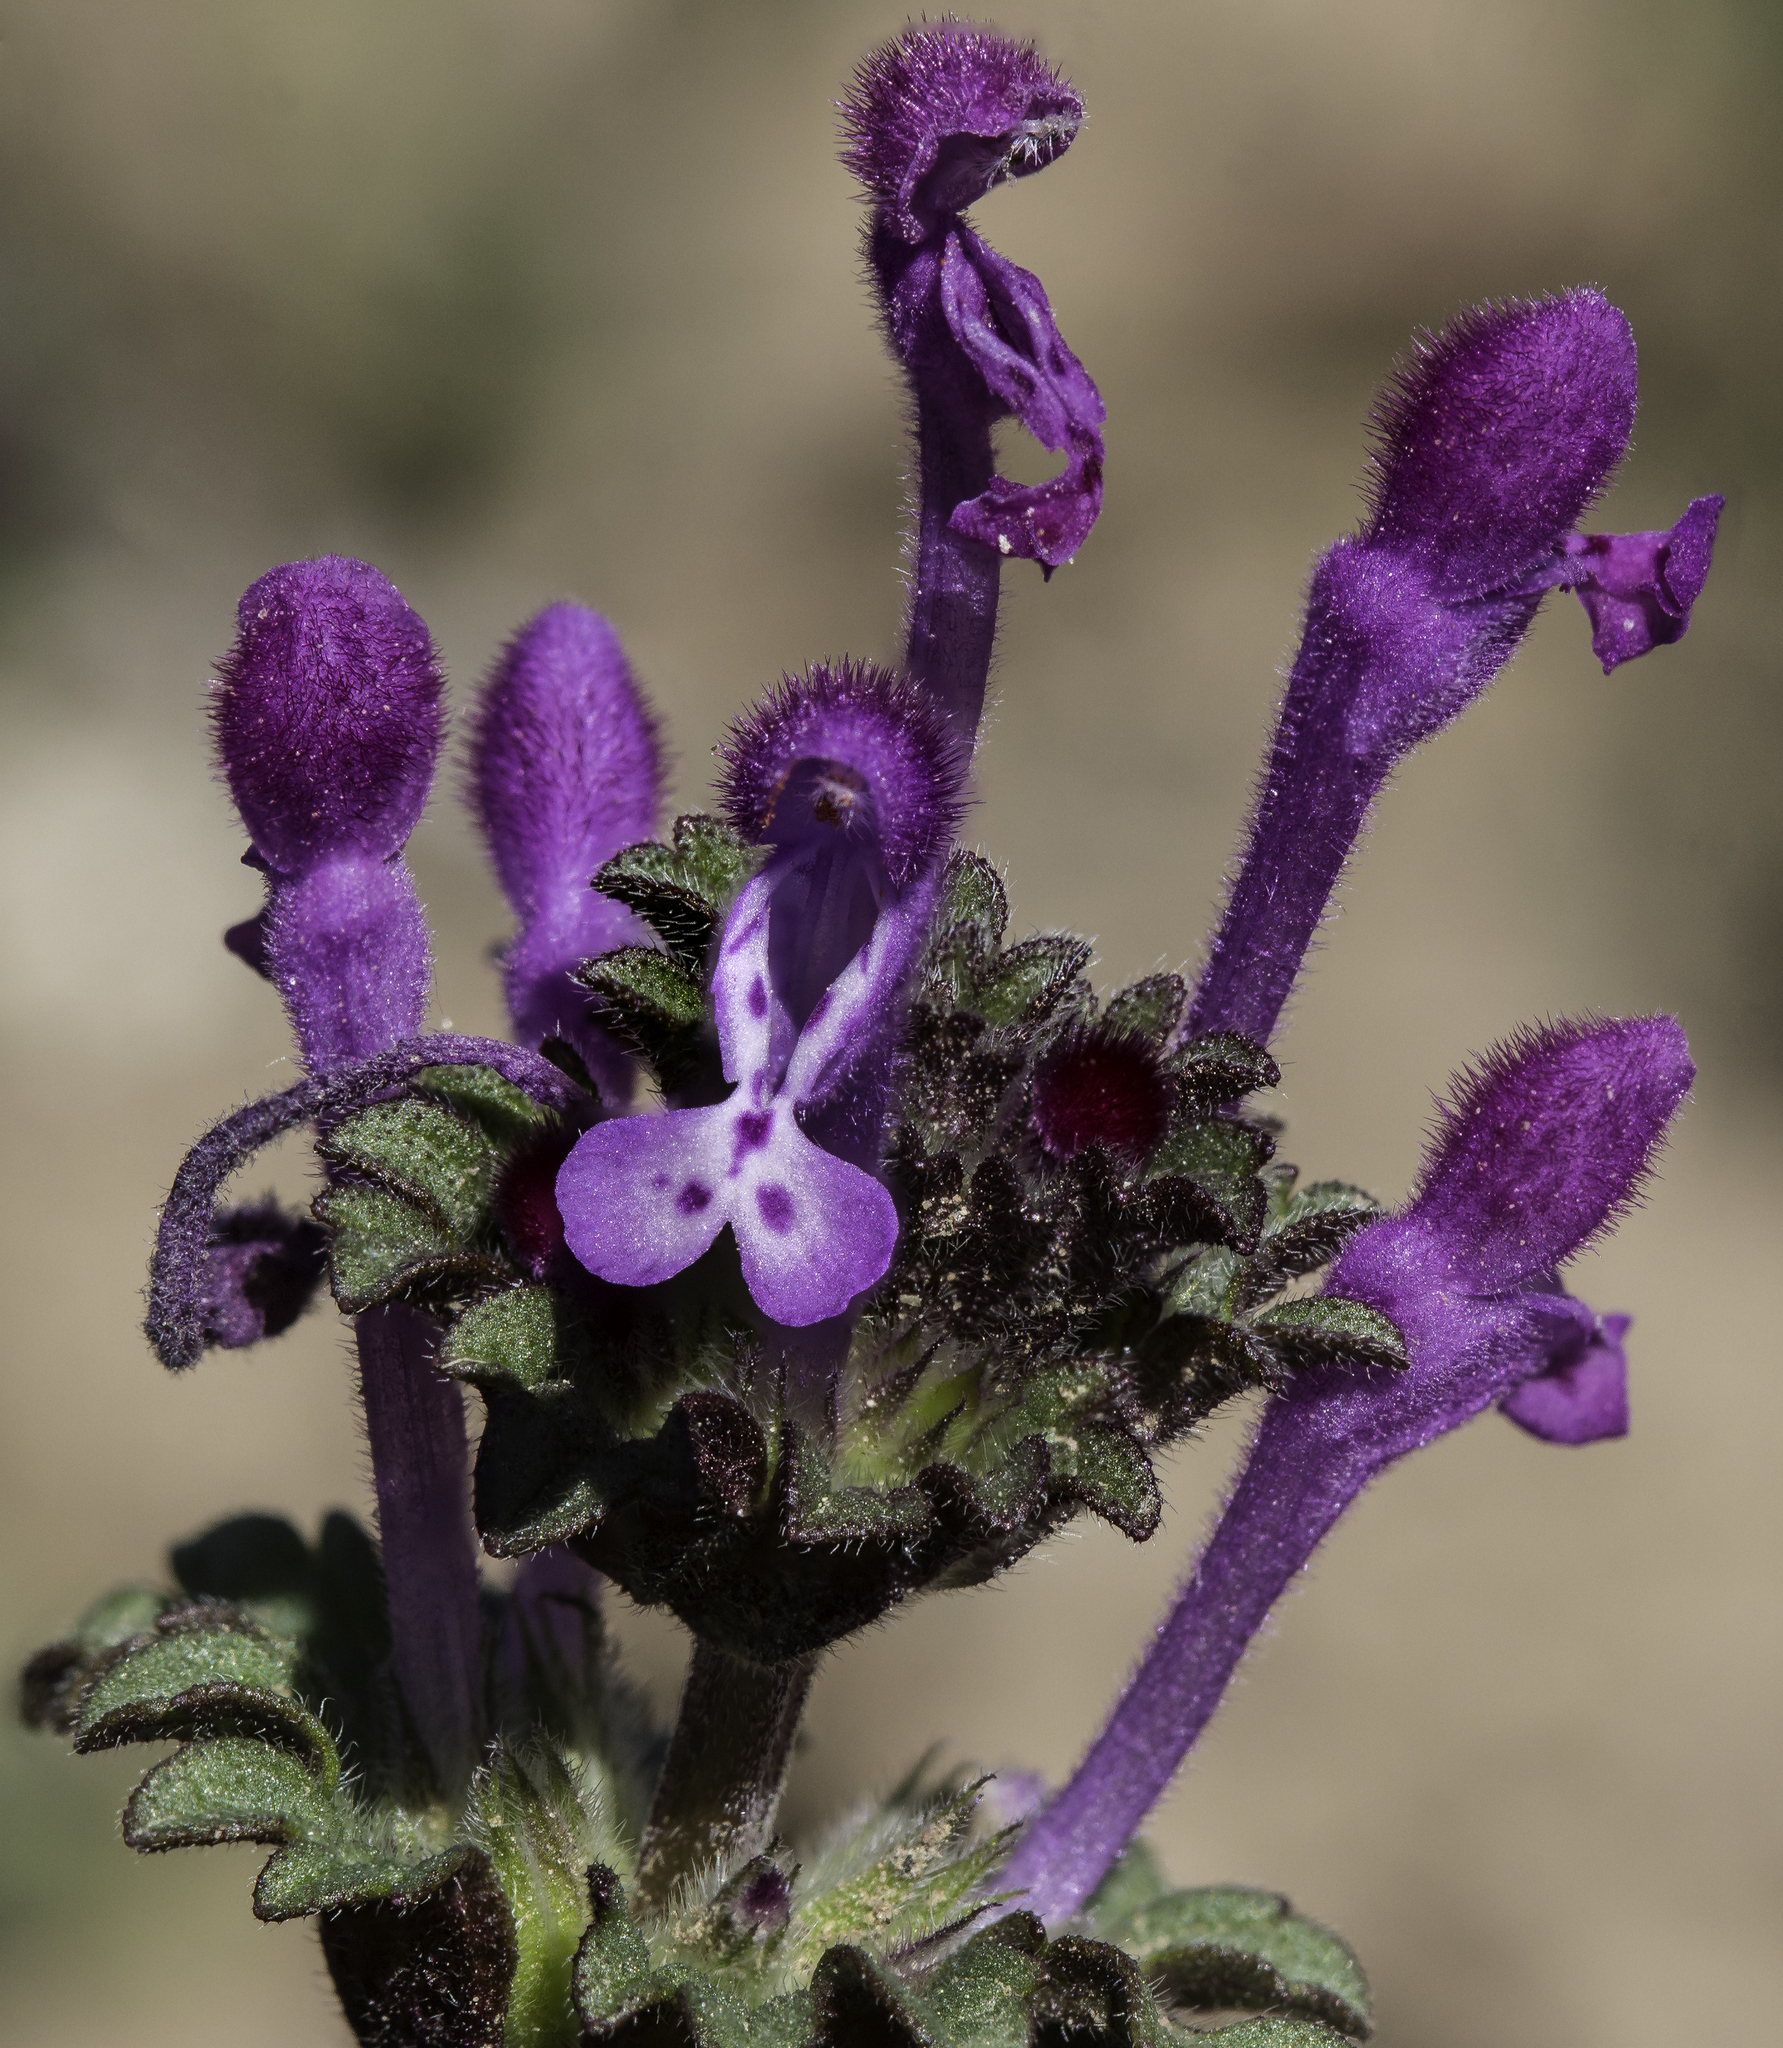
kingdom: Plantae
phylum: Tracheophyta
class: Magnoliopsida
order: Lamiales
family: Lamiaceae
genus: Lamium
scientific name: Lamium amplexicaule
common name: Henbit dead-nettle
